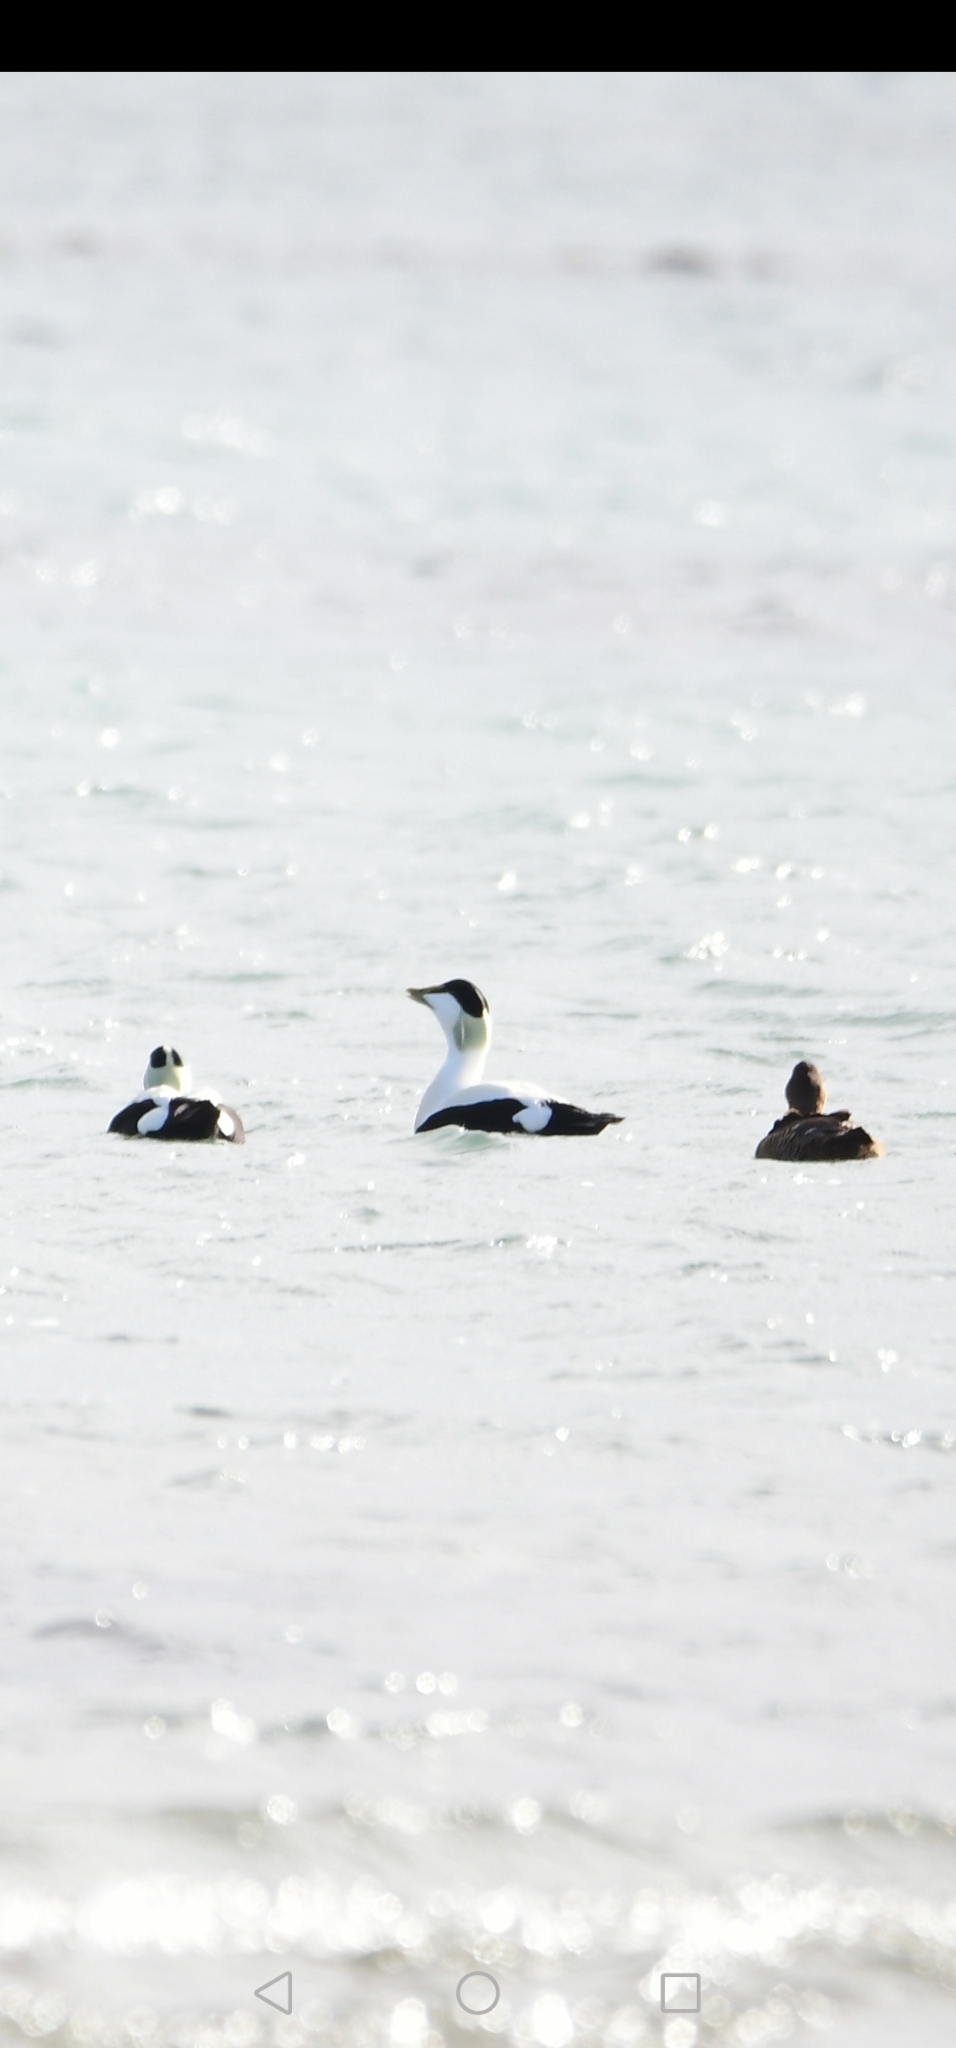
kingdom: Animalia
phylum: Chordata
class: Aves
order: Anseriformes
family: Anatidae
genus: Somateria
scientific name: Somateria mollissima
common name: Common eider
